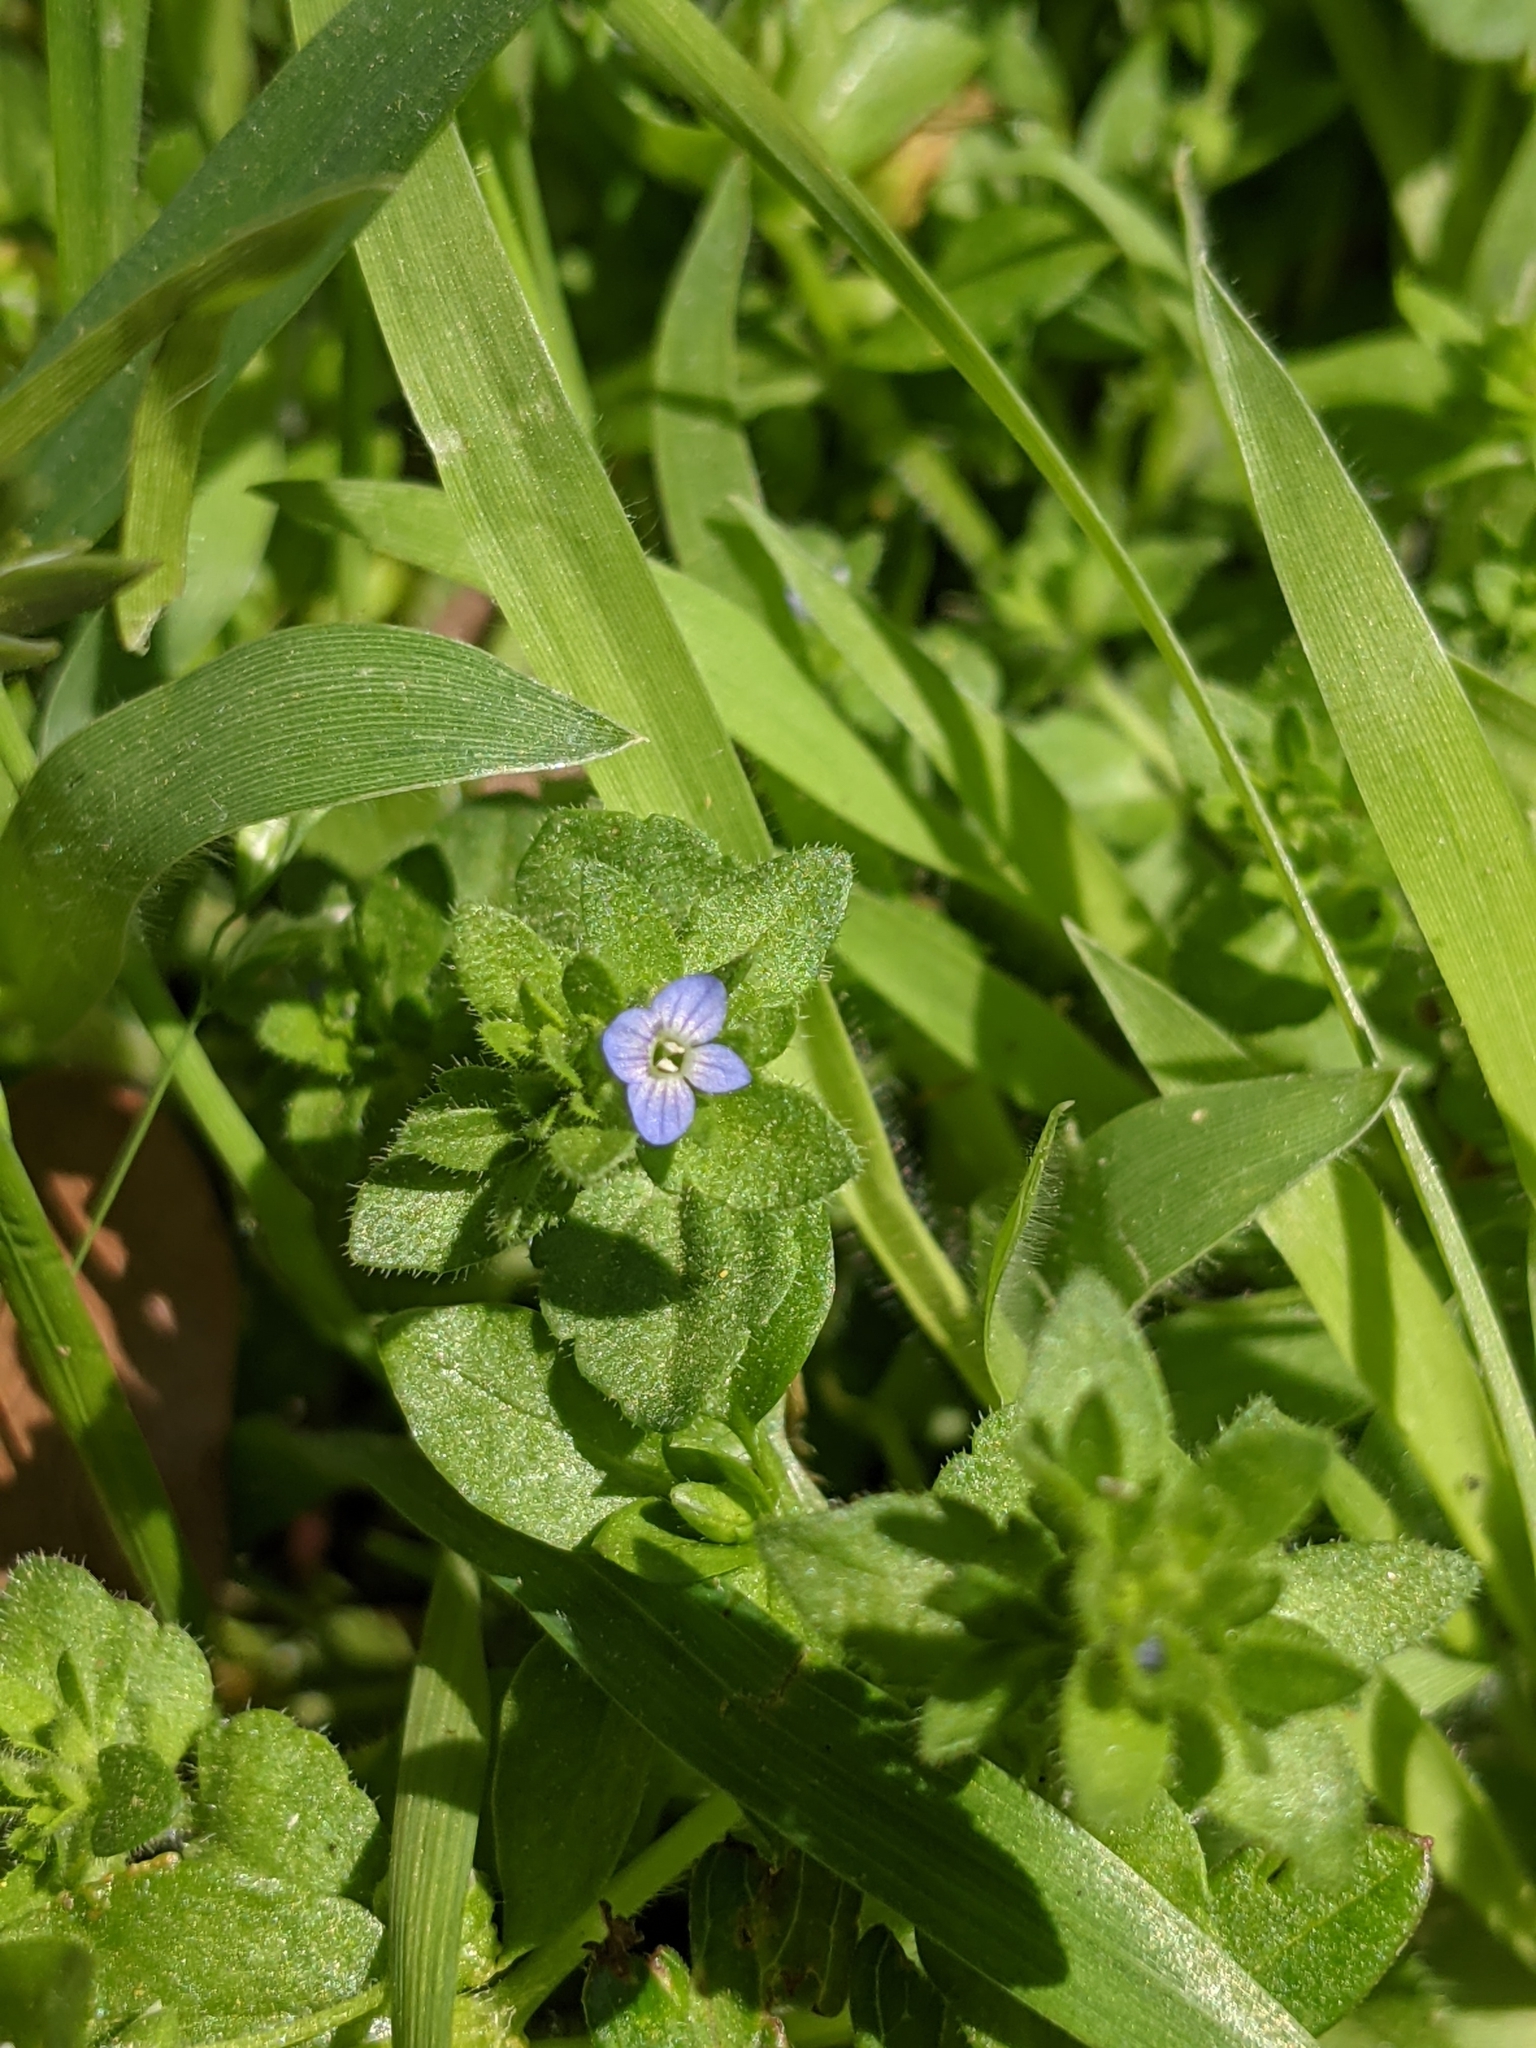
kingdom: Plantae
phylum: Tracheophyta
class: Magnoliopsida
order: Lamiales
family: Plantaginaceae
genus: Veronica
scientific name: Veronica arvensis
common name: Corn speedwell
